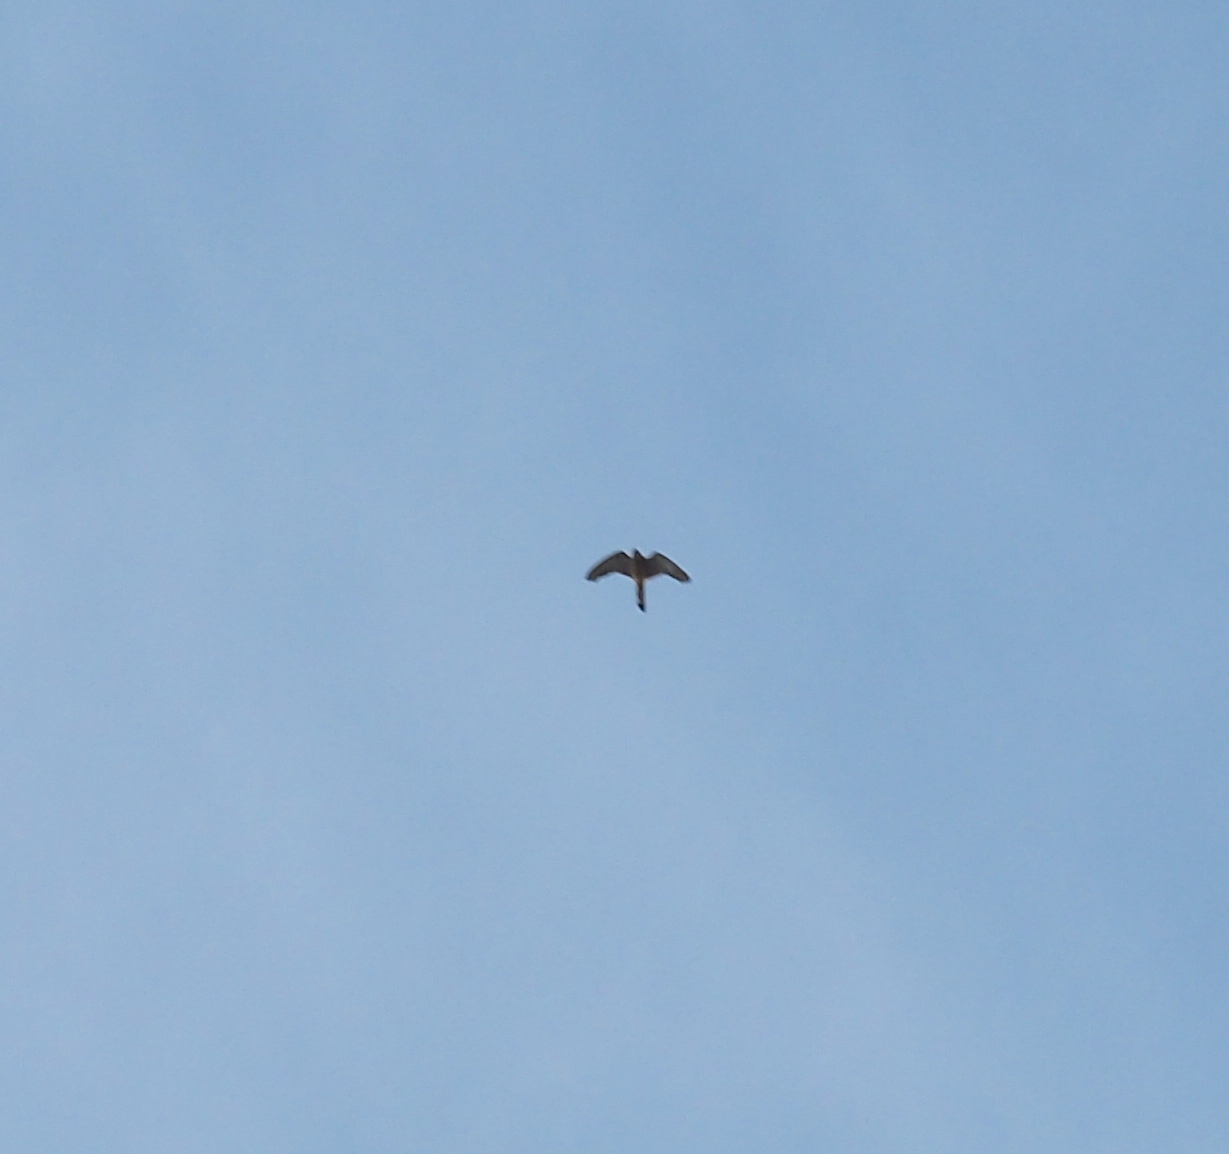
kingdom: Animalia
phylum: Chordata
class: Aves
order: Falconiformes
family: Falconidae
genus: Falco
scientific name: Falco tinnunculus
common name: Common kestrel
